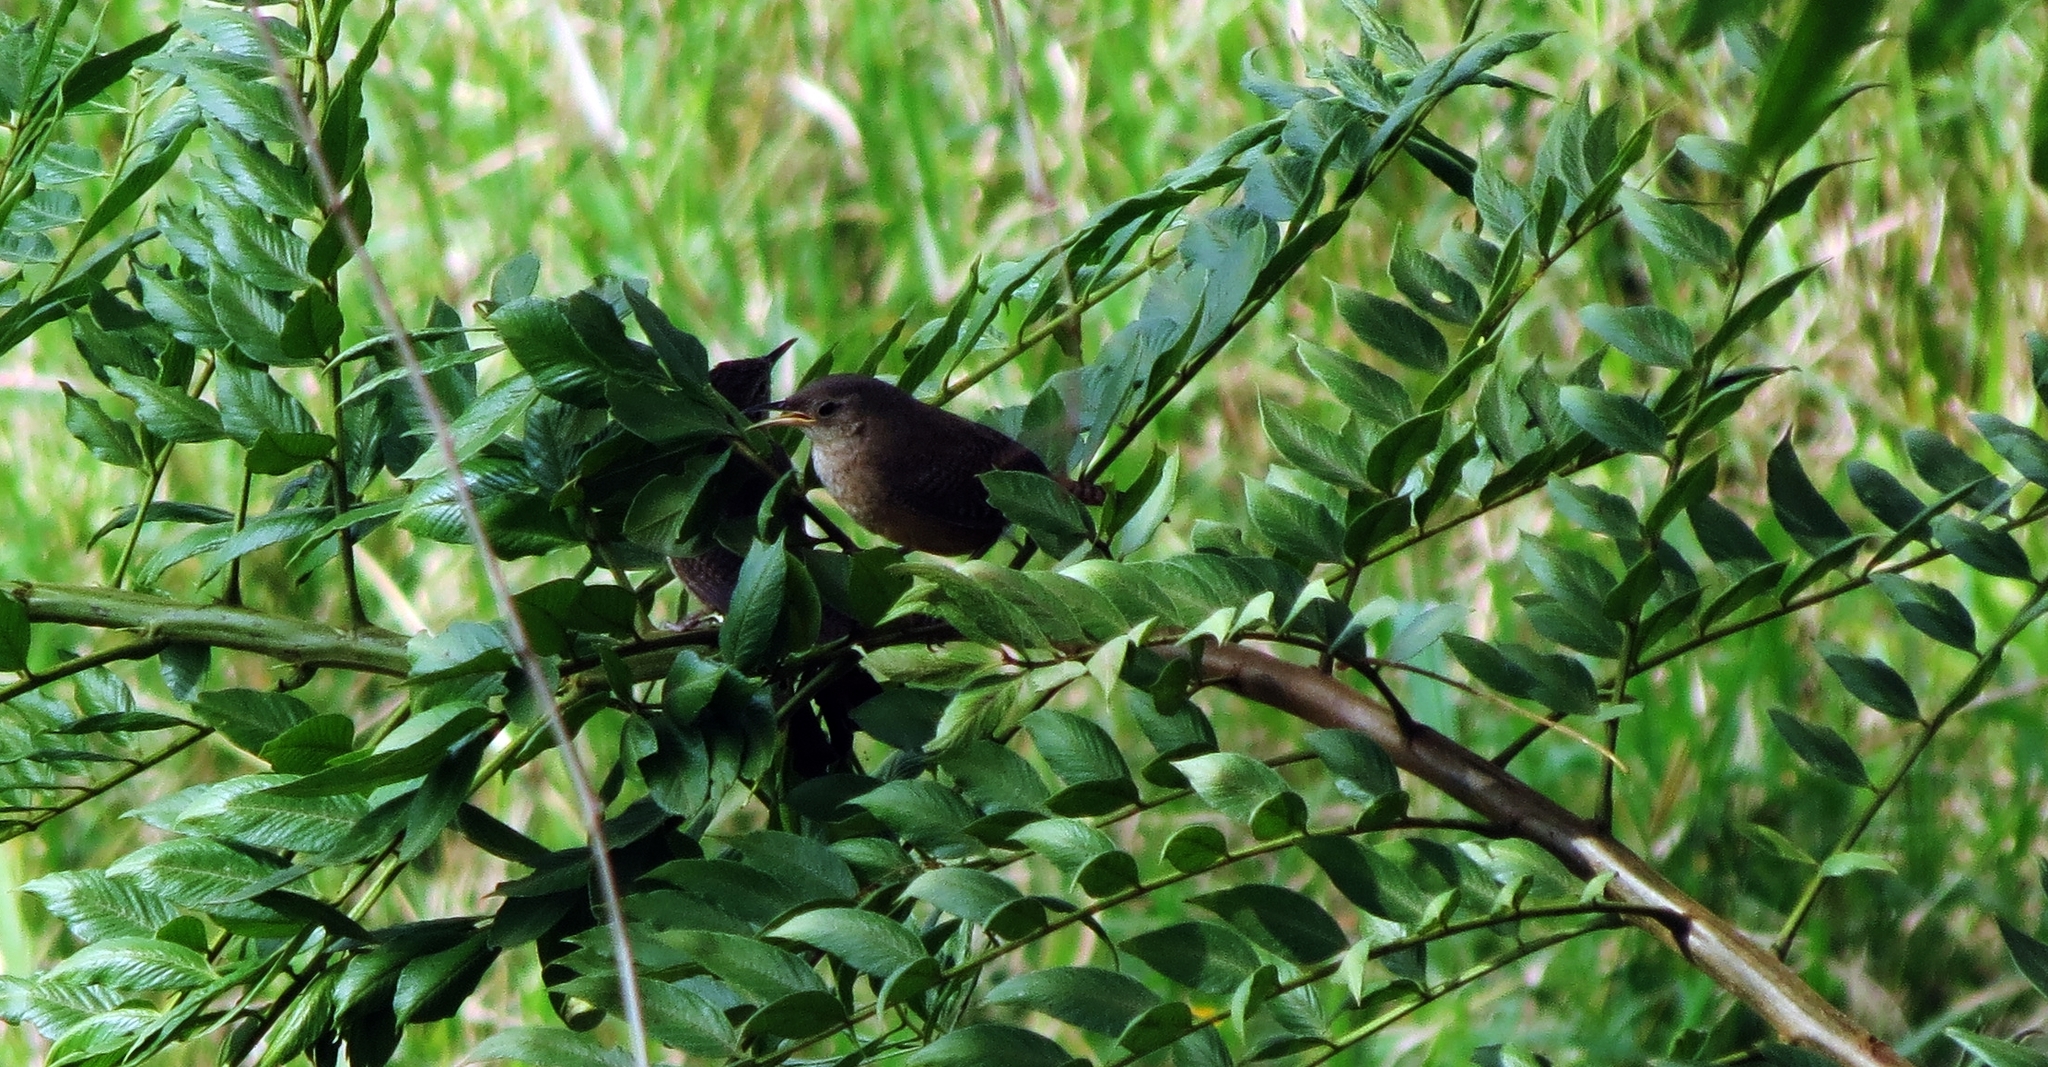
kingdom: Animalia
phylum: Chordata
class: Aves
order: Passeriformes
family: Troglodytidae
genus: Troglodytes
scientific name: Troglodytes aedon
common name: House wren
